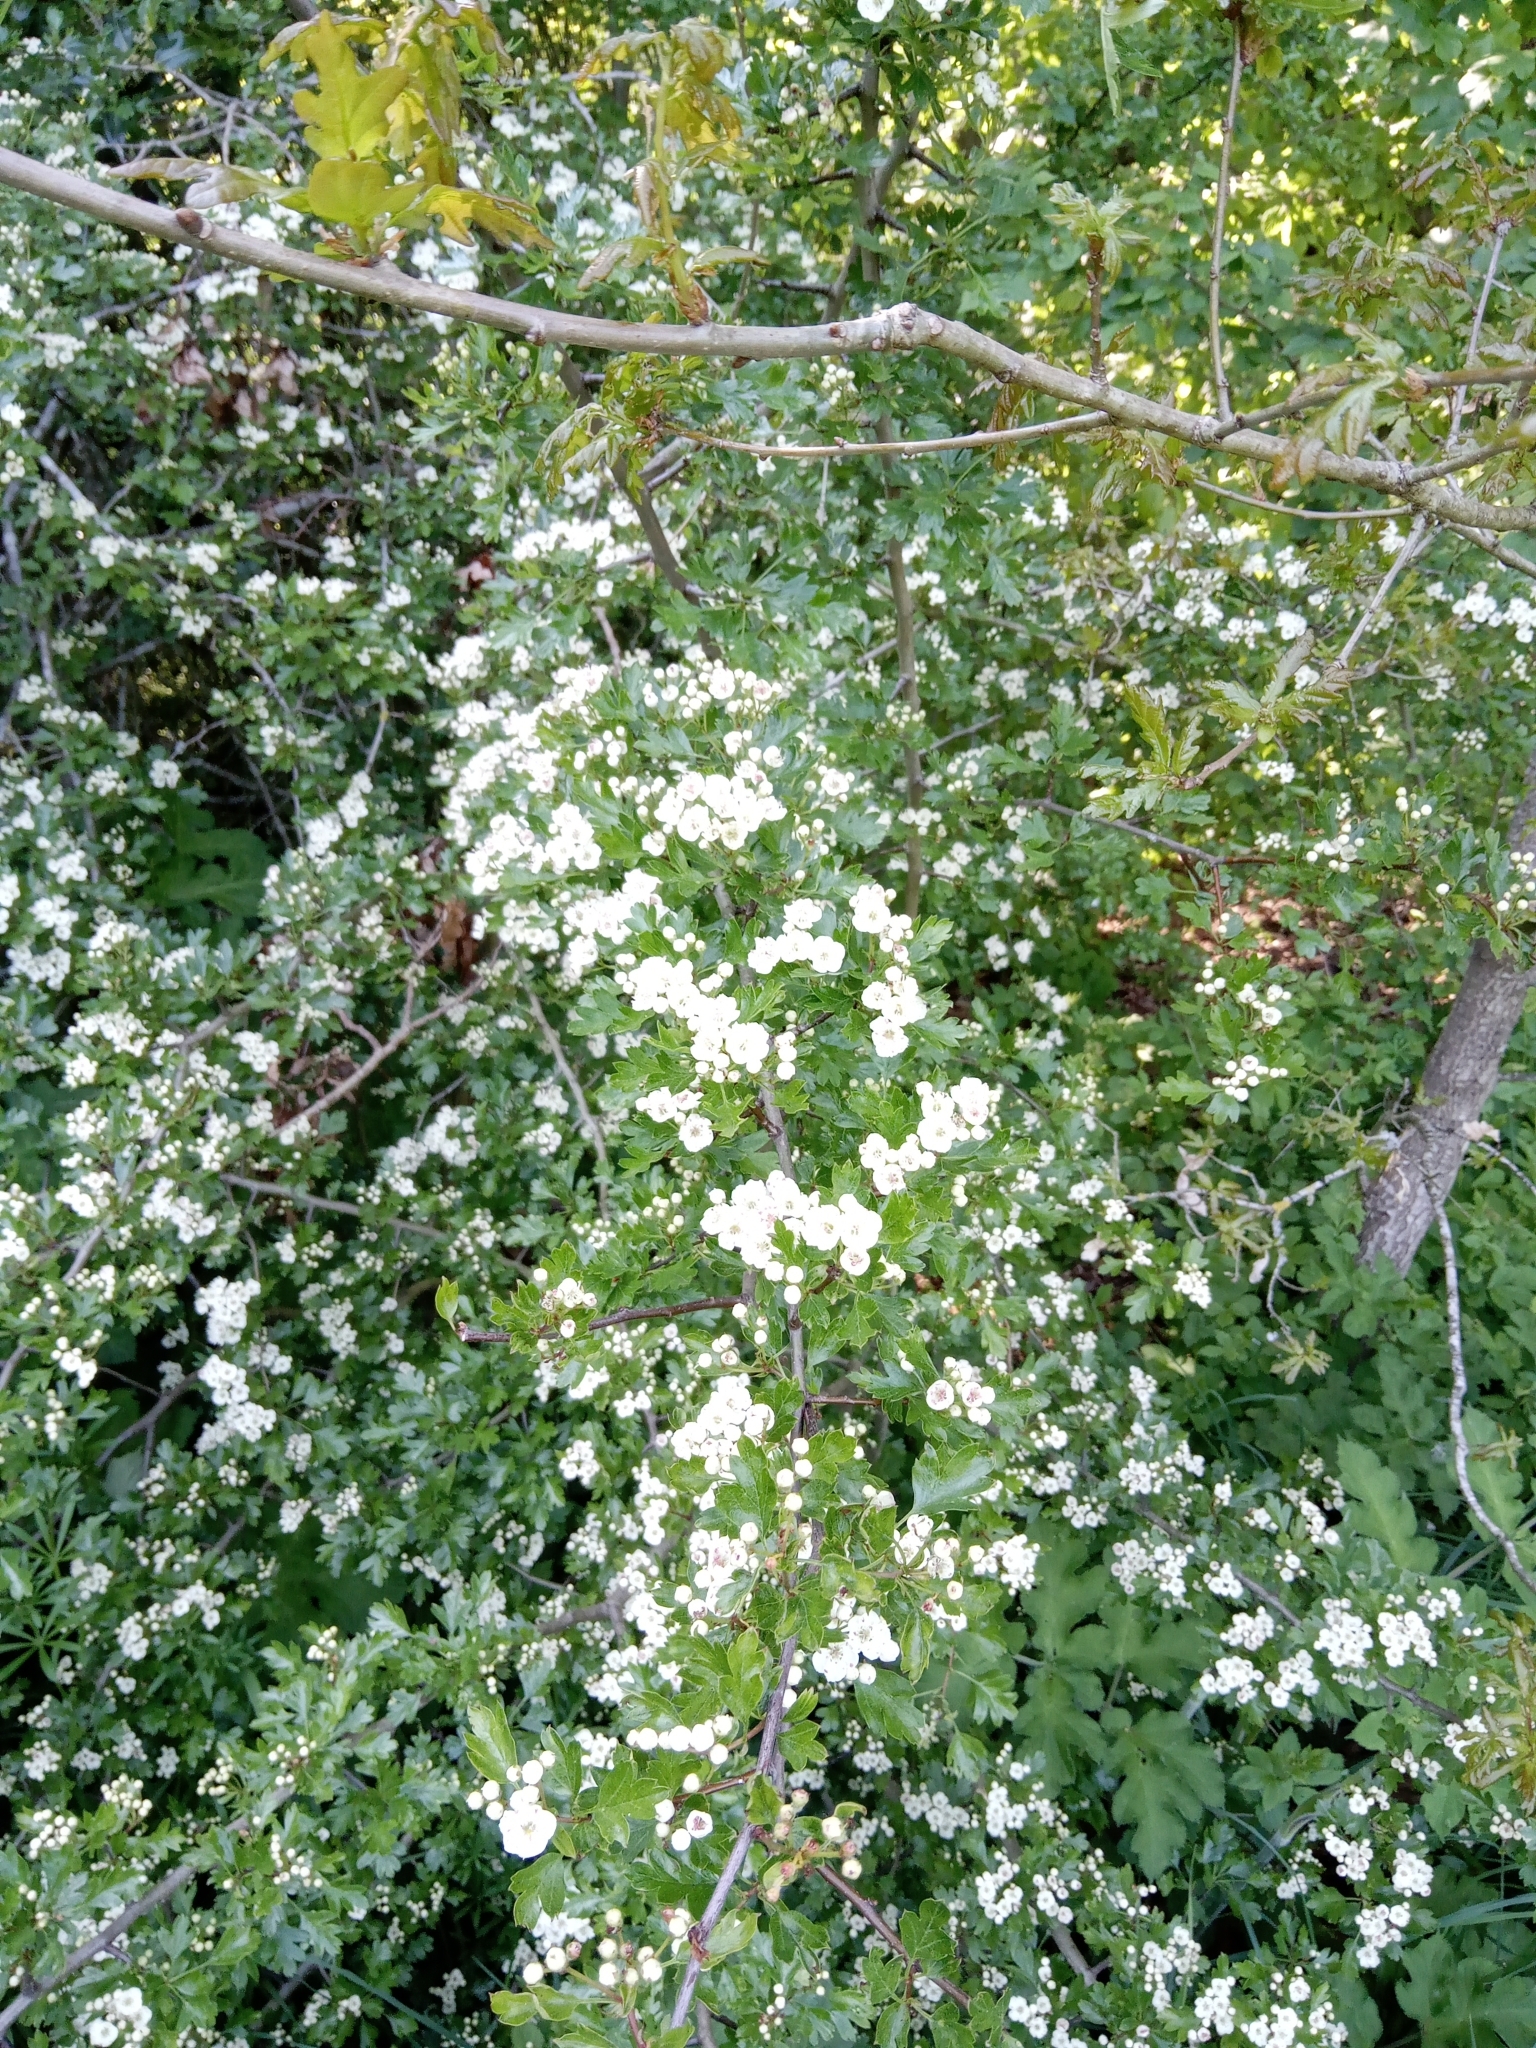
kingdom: Plantae
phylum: Tracheophyta
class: Magnoliopsida
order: Rosales
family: Rosaceae
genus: Crataegus
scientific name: Crataegus monogyna
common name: Hawthorn
